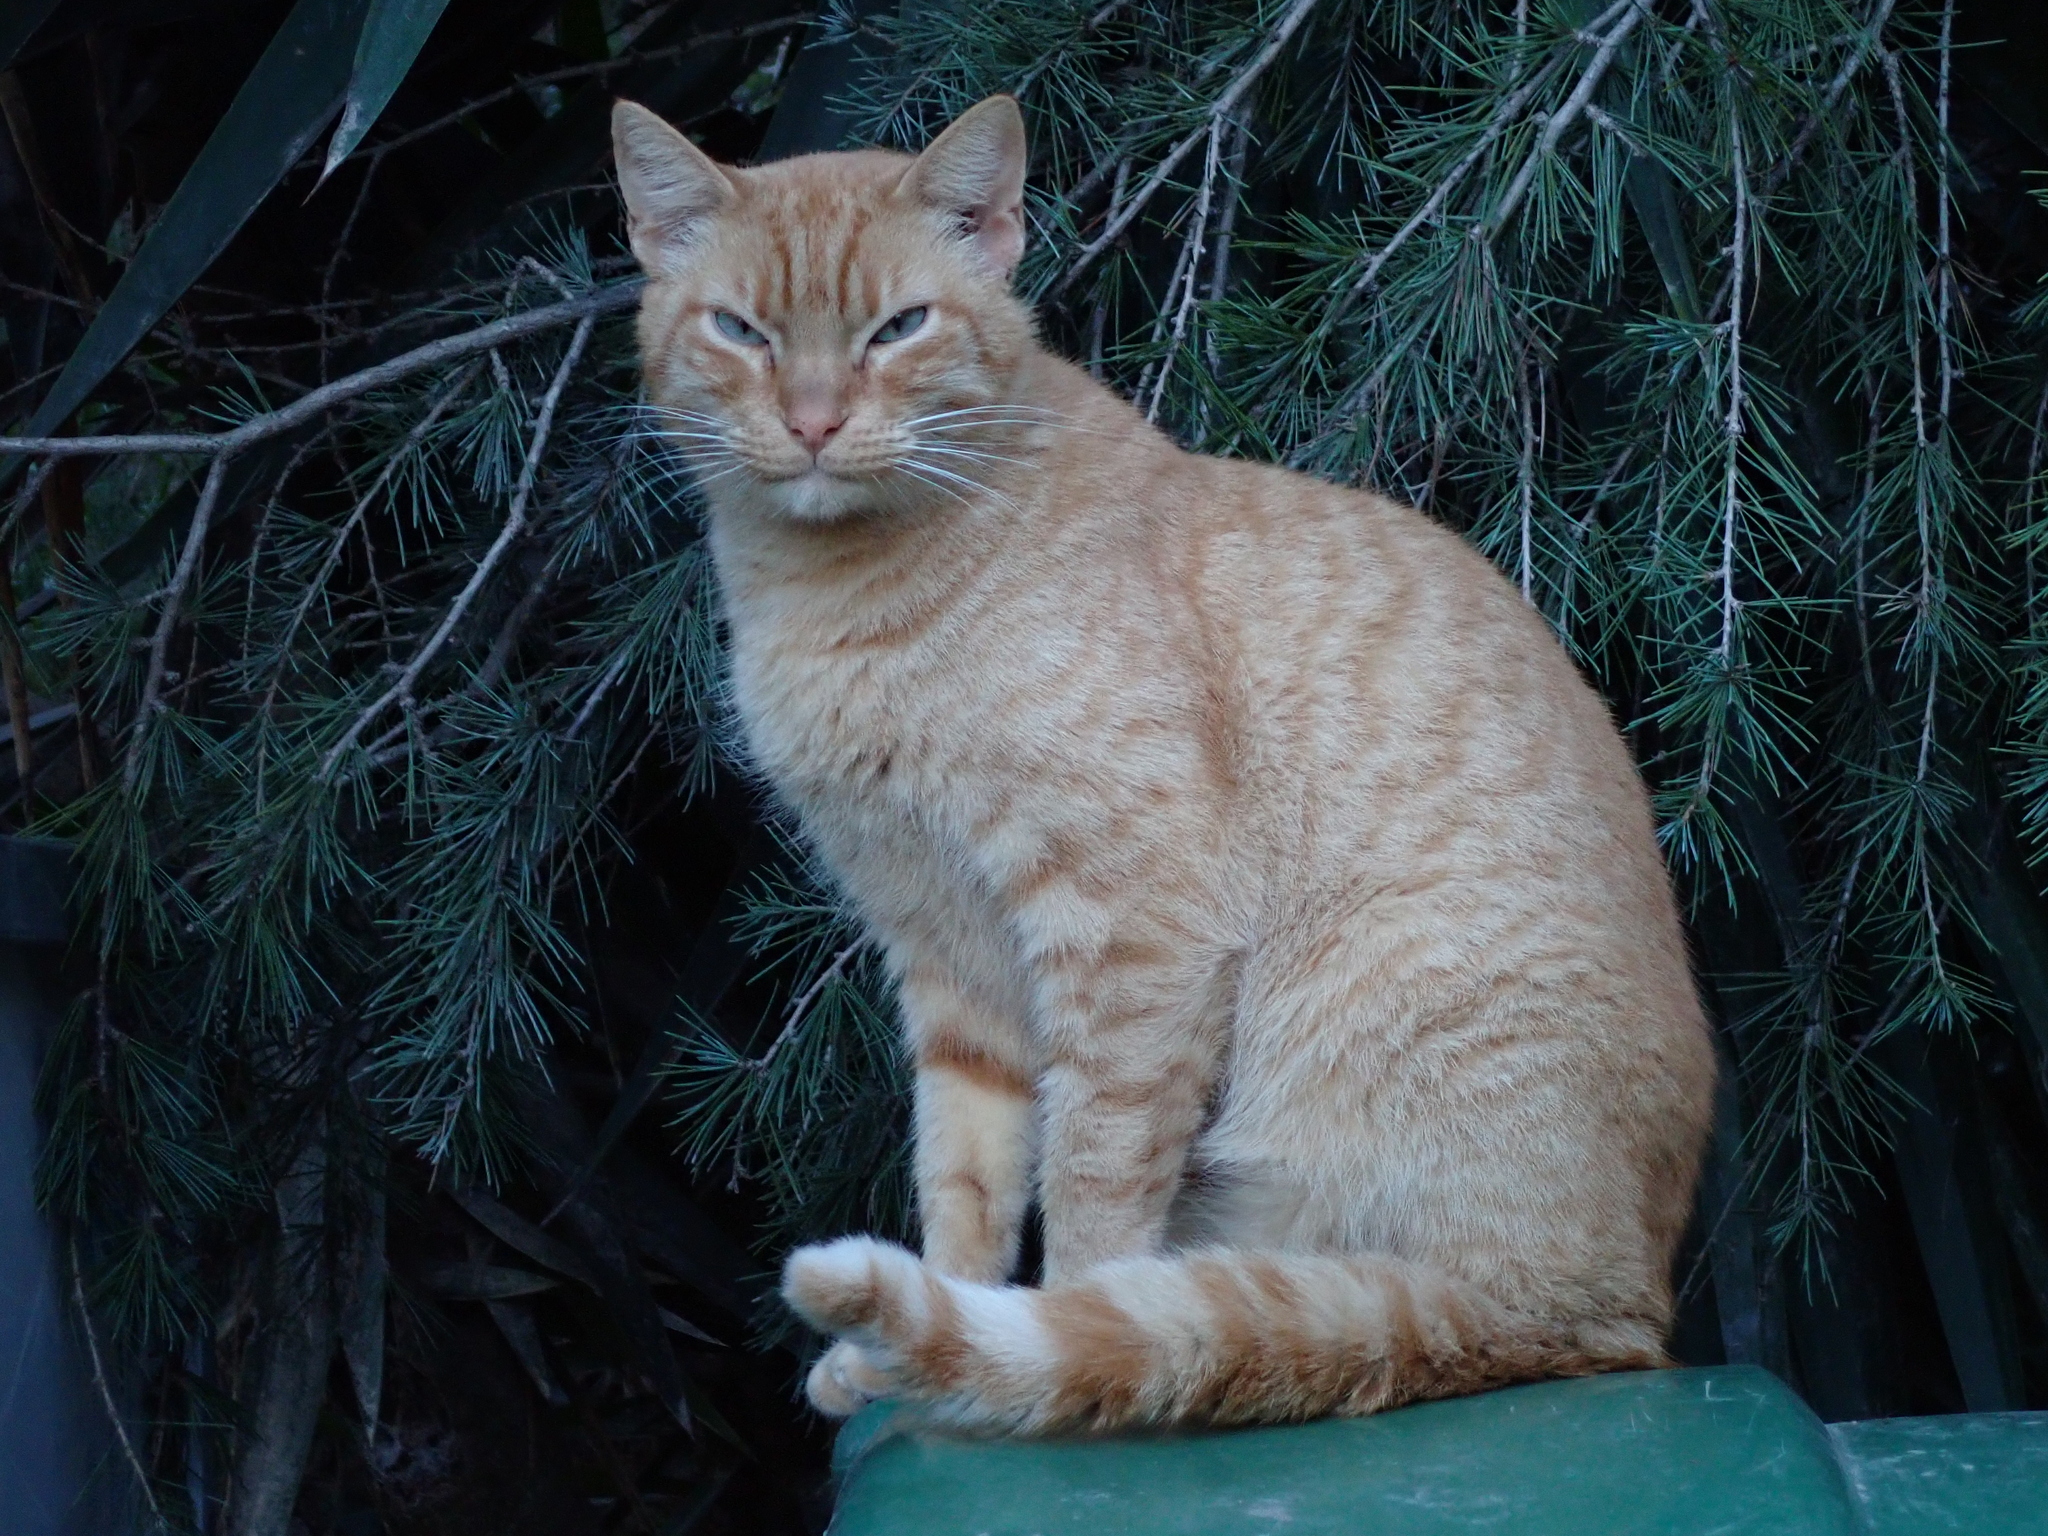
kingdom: Animalia
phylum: Chordata
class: Mammalia
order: Carnivora
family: Felidae
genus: Felis
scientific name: Felis catus
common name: Domestic cat
